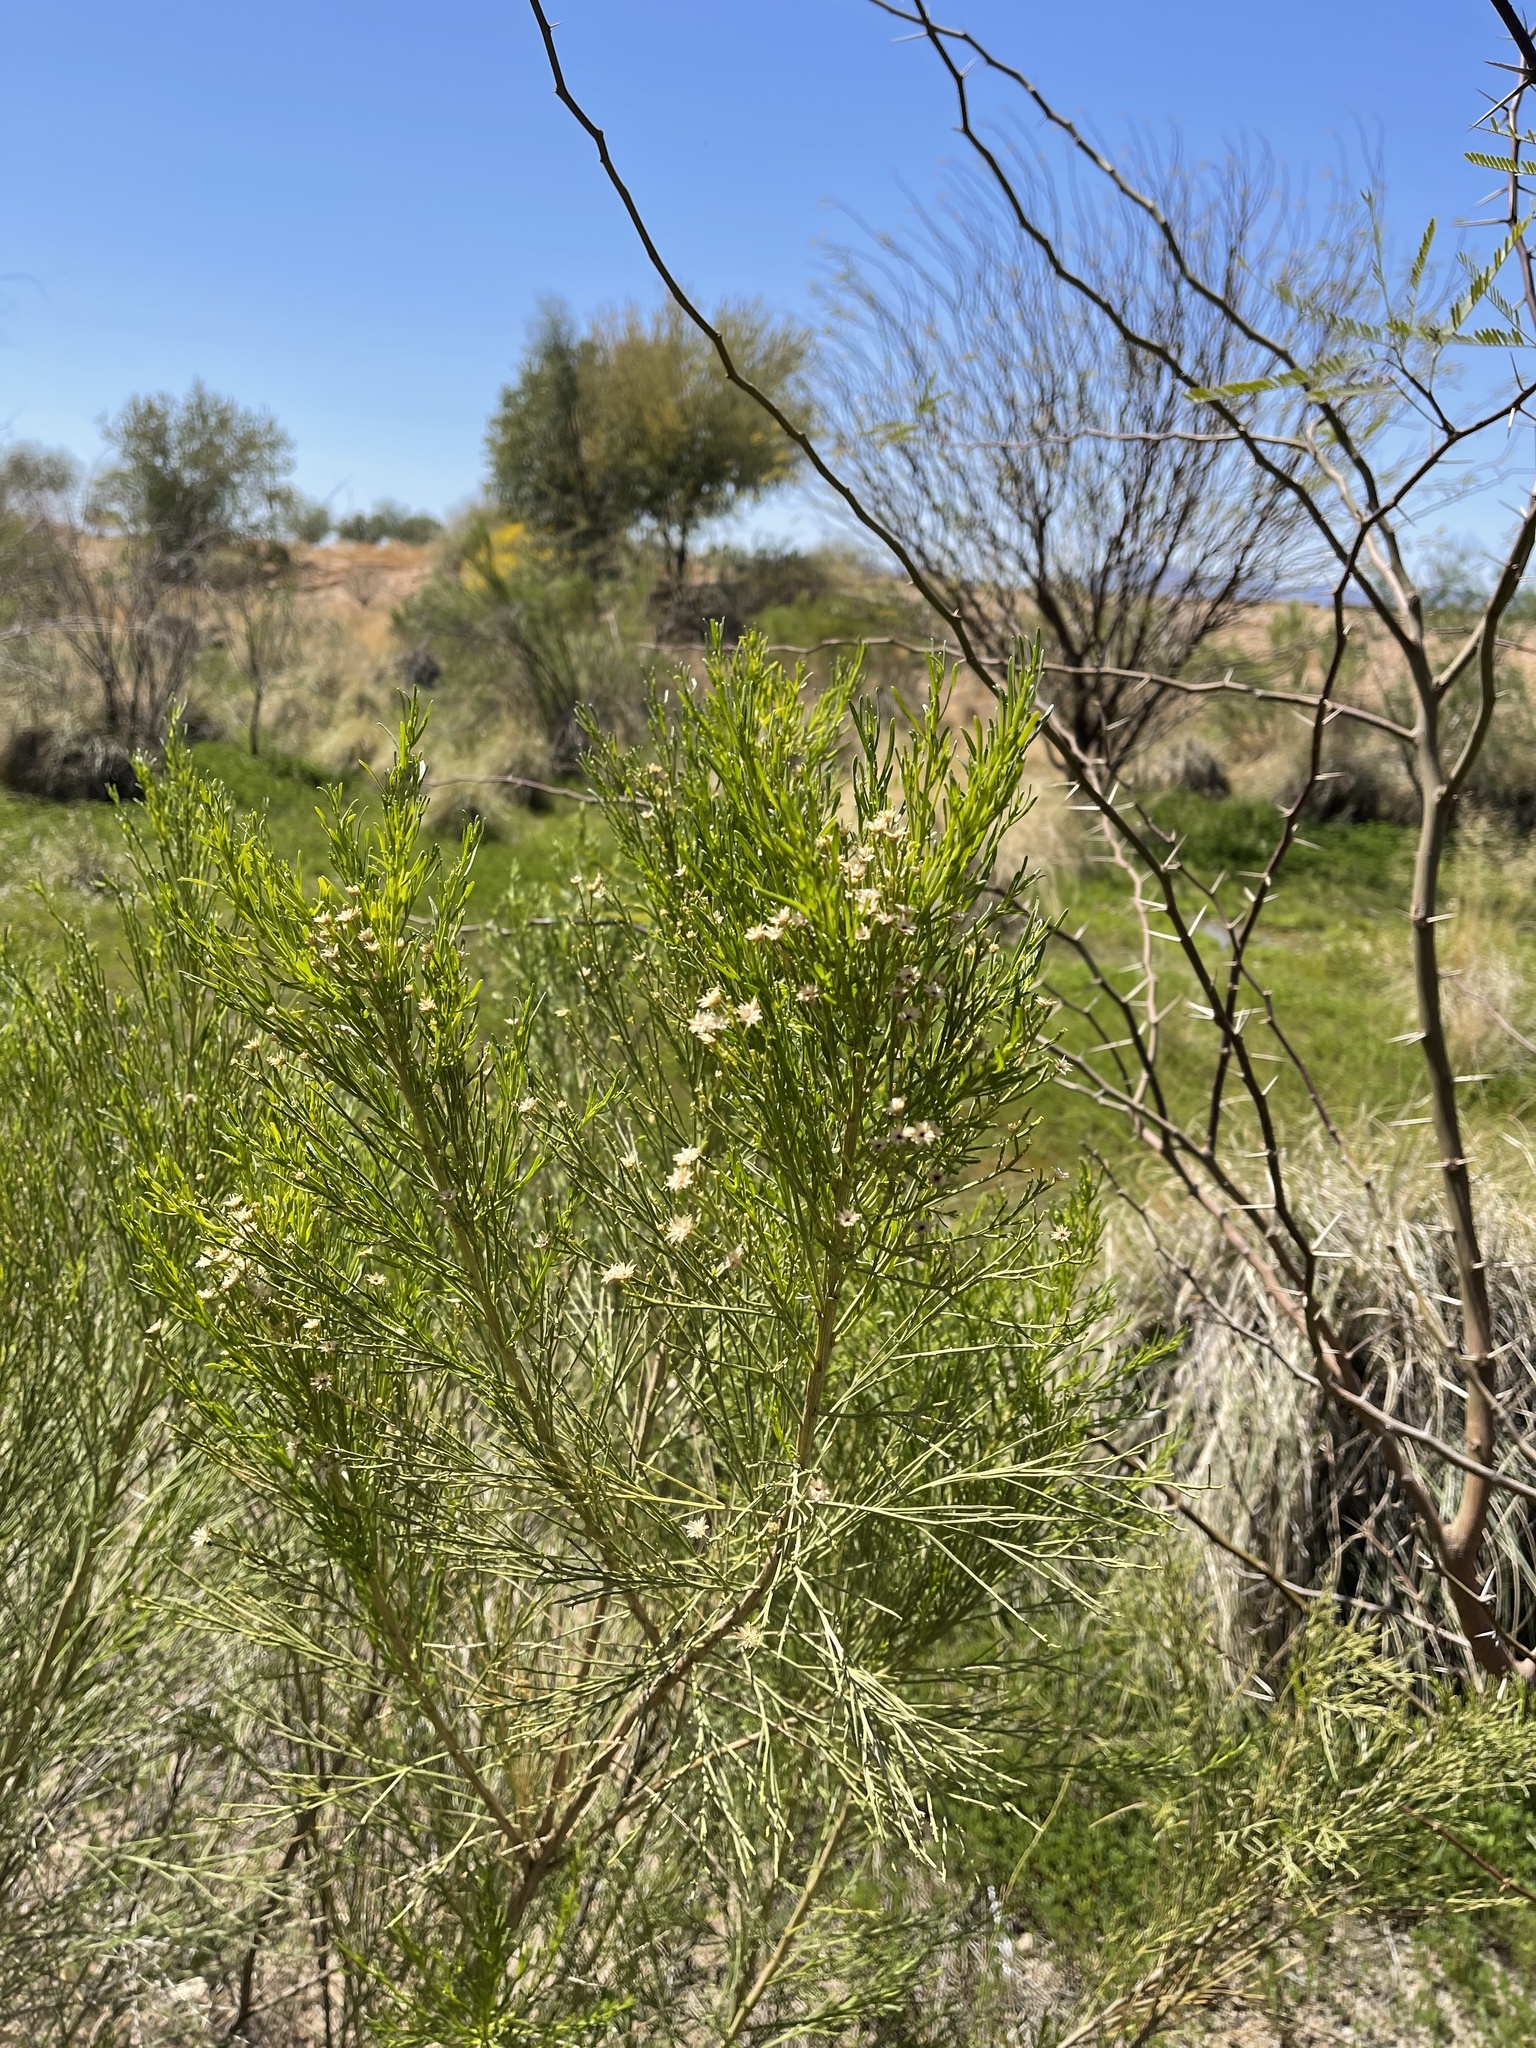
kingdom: Plantae
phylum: Tracheophyta
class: Magnoliopsida
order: Asterales
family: Asteraceae
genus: Baccharis
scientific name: Baccharis sarothroides
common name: Desert-broom
